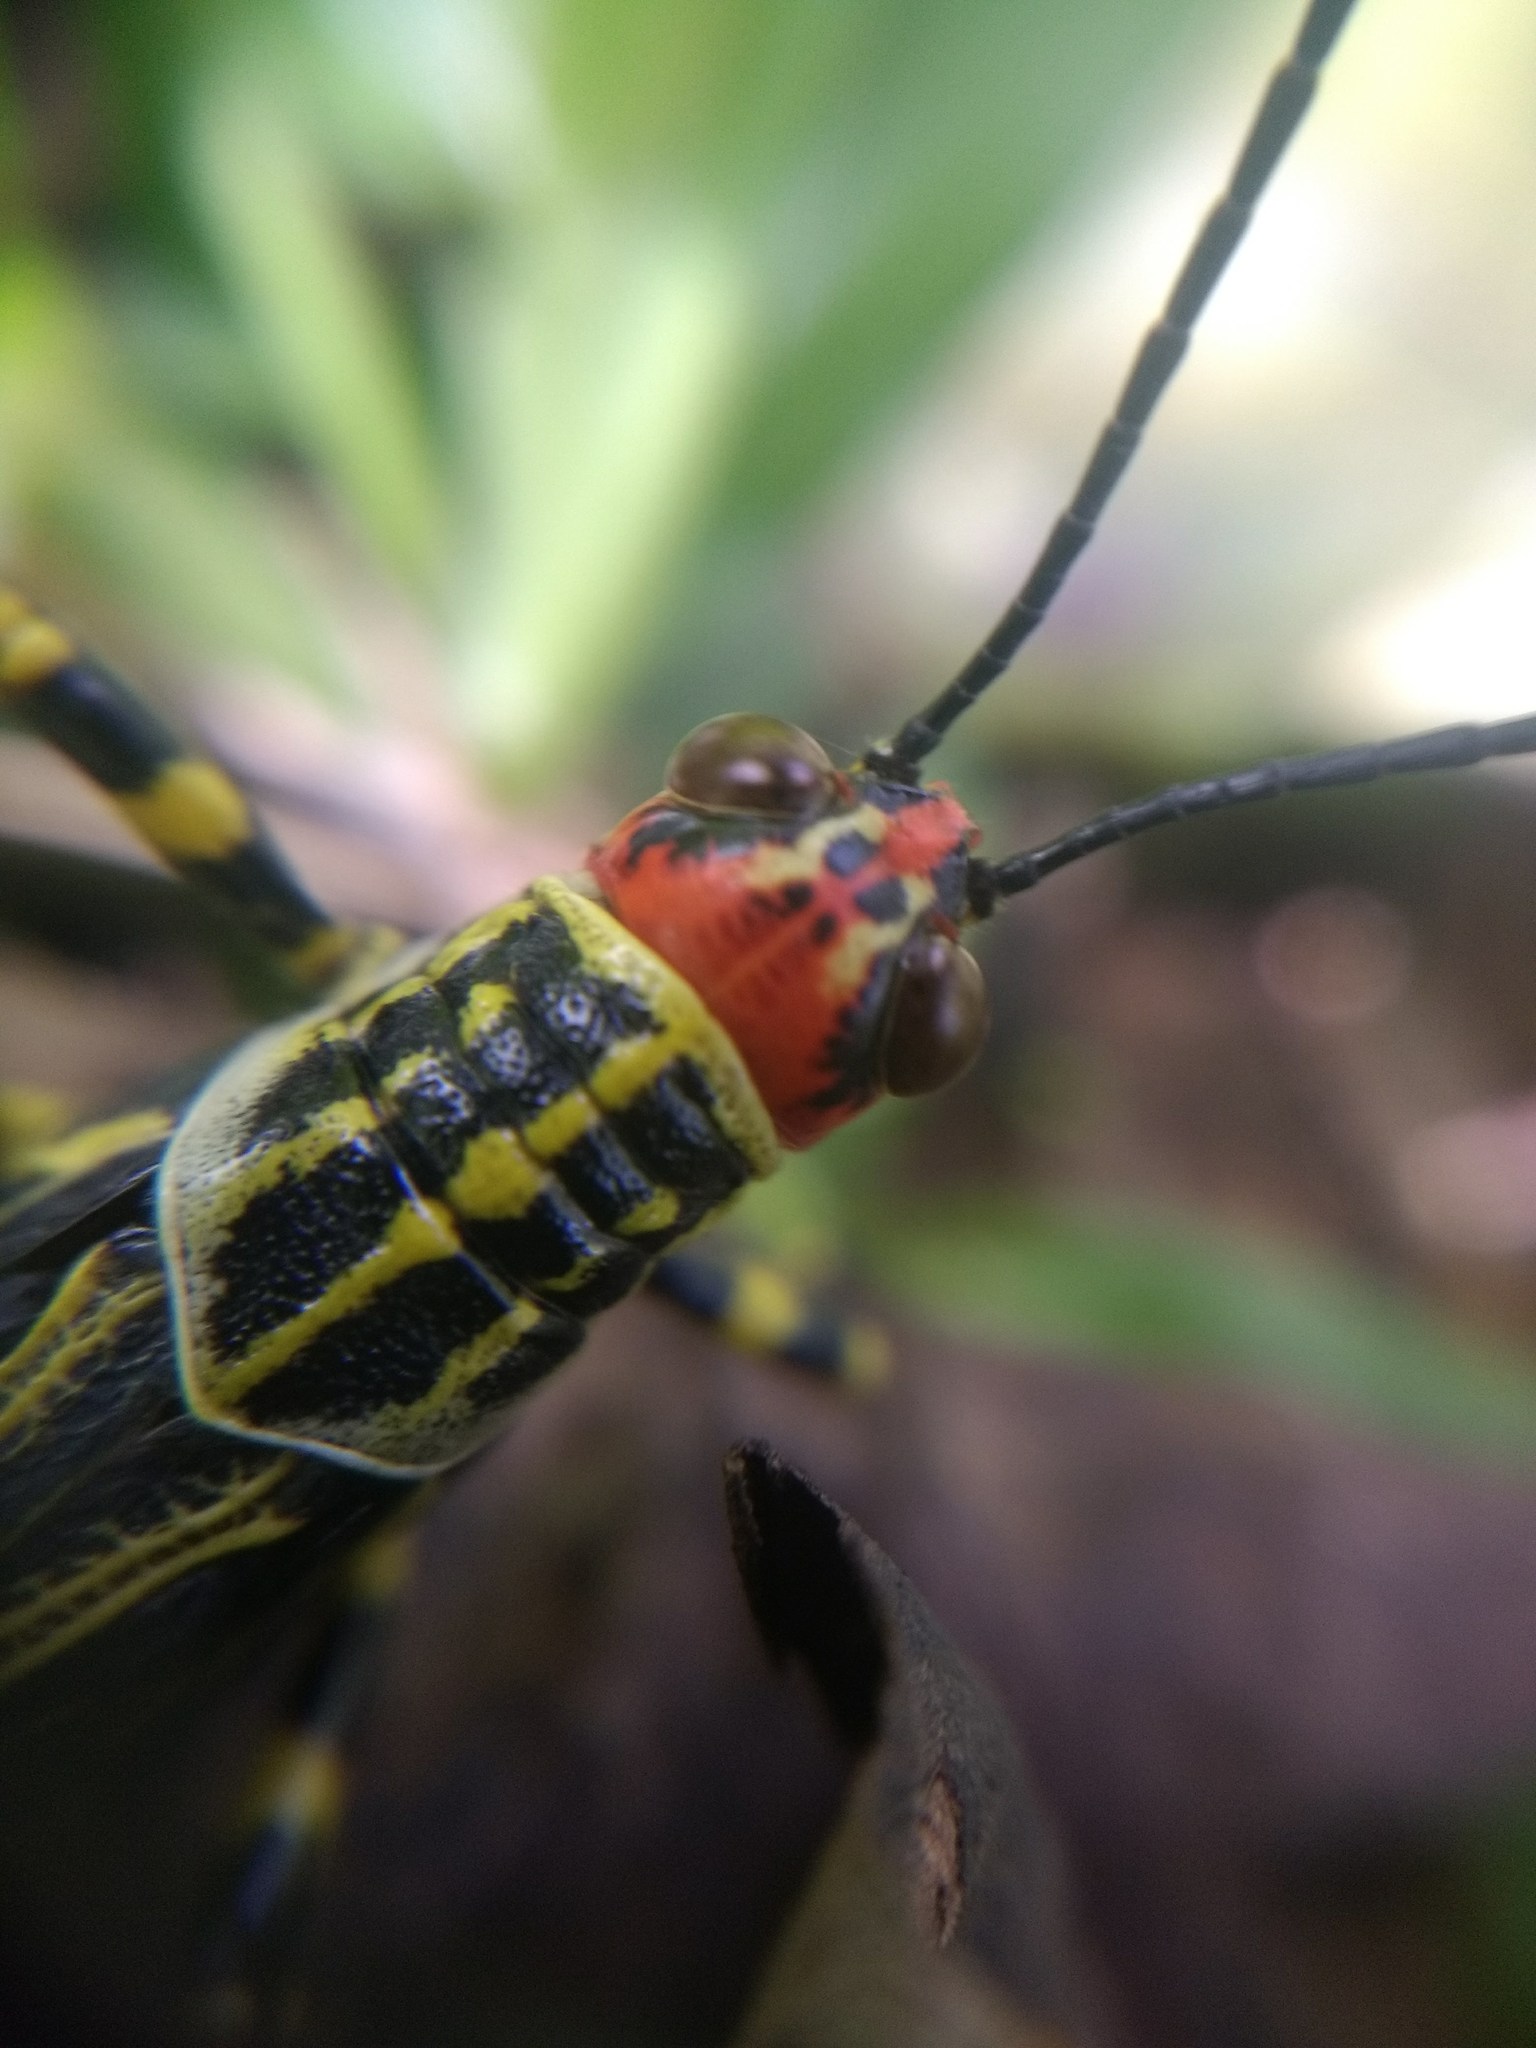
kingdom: Animalia
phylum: Arthropoda
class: Insecta
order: Orthoptera
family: Romaleidae
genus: Zoniopoda
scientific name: Zoniopoda omnicolor
